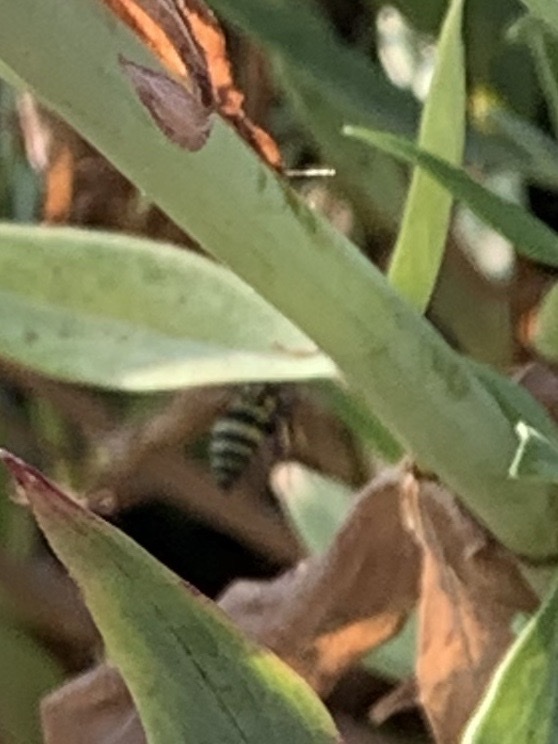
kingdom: Animalia
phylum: Arthropoda
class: Insecta
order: Hymenoptera
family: Vespidae
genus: Ancistrocerus
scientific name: Ancistrocerus
